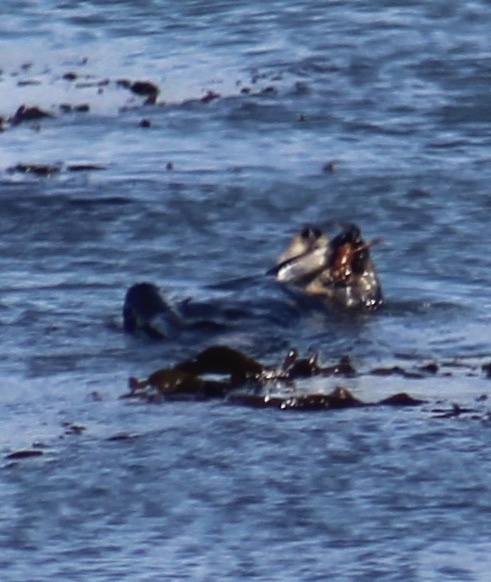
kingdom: Animalia
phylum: Chordata
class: Mammalia
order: Carnivora
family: Mustelidae
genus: Enhydra
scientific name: Enhydra lutris
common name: Sea otter
